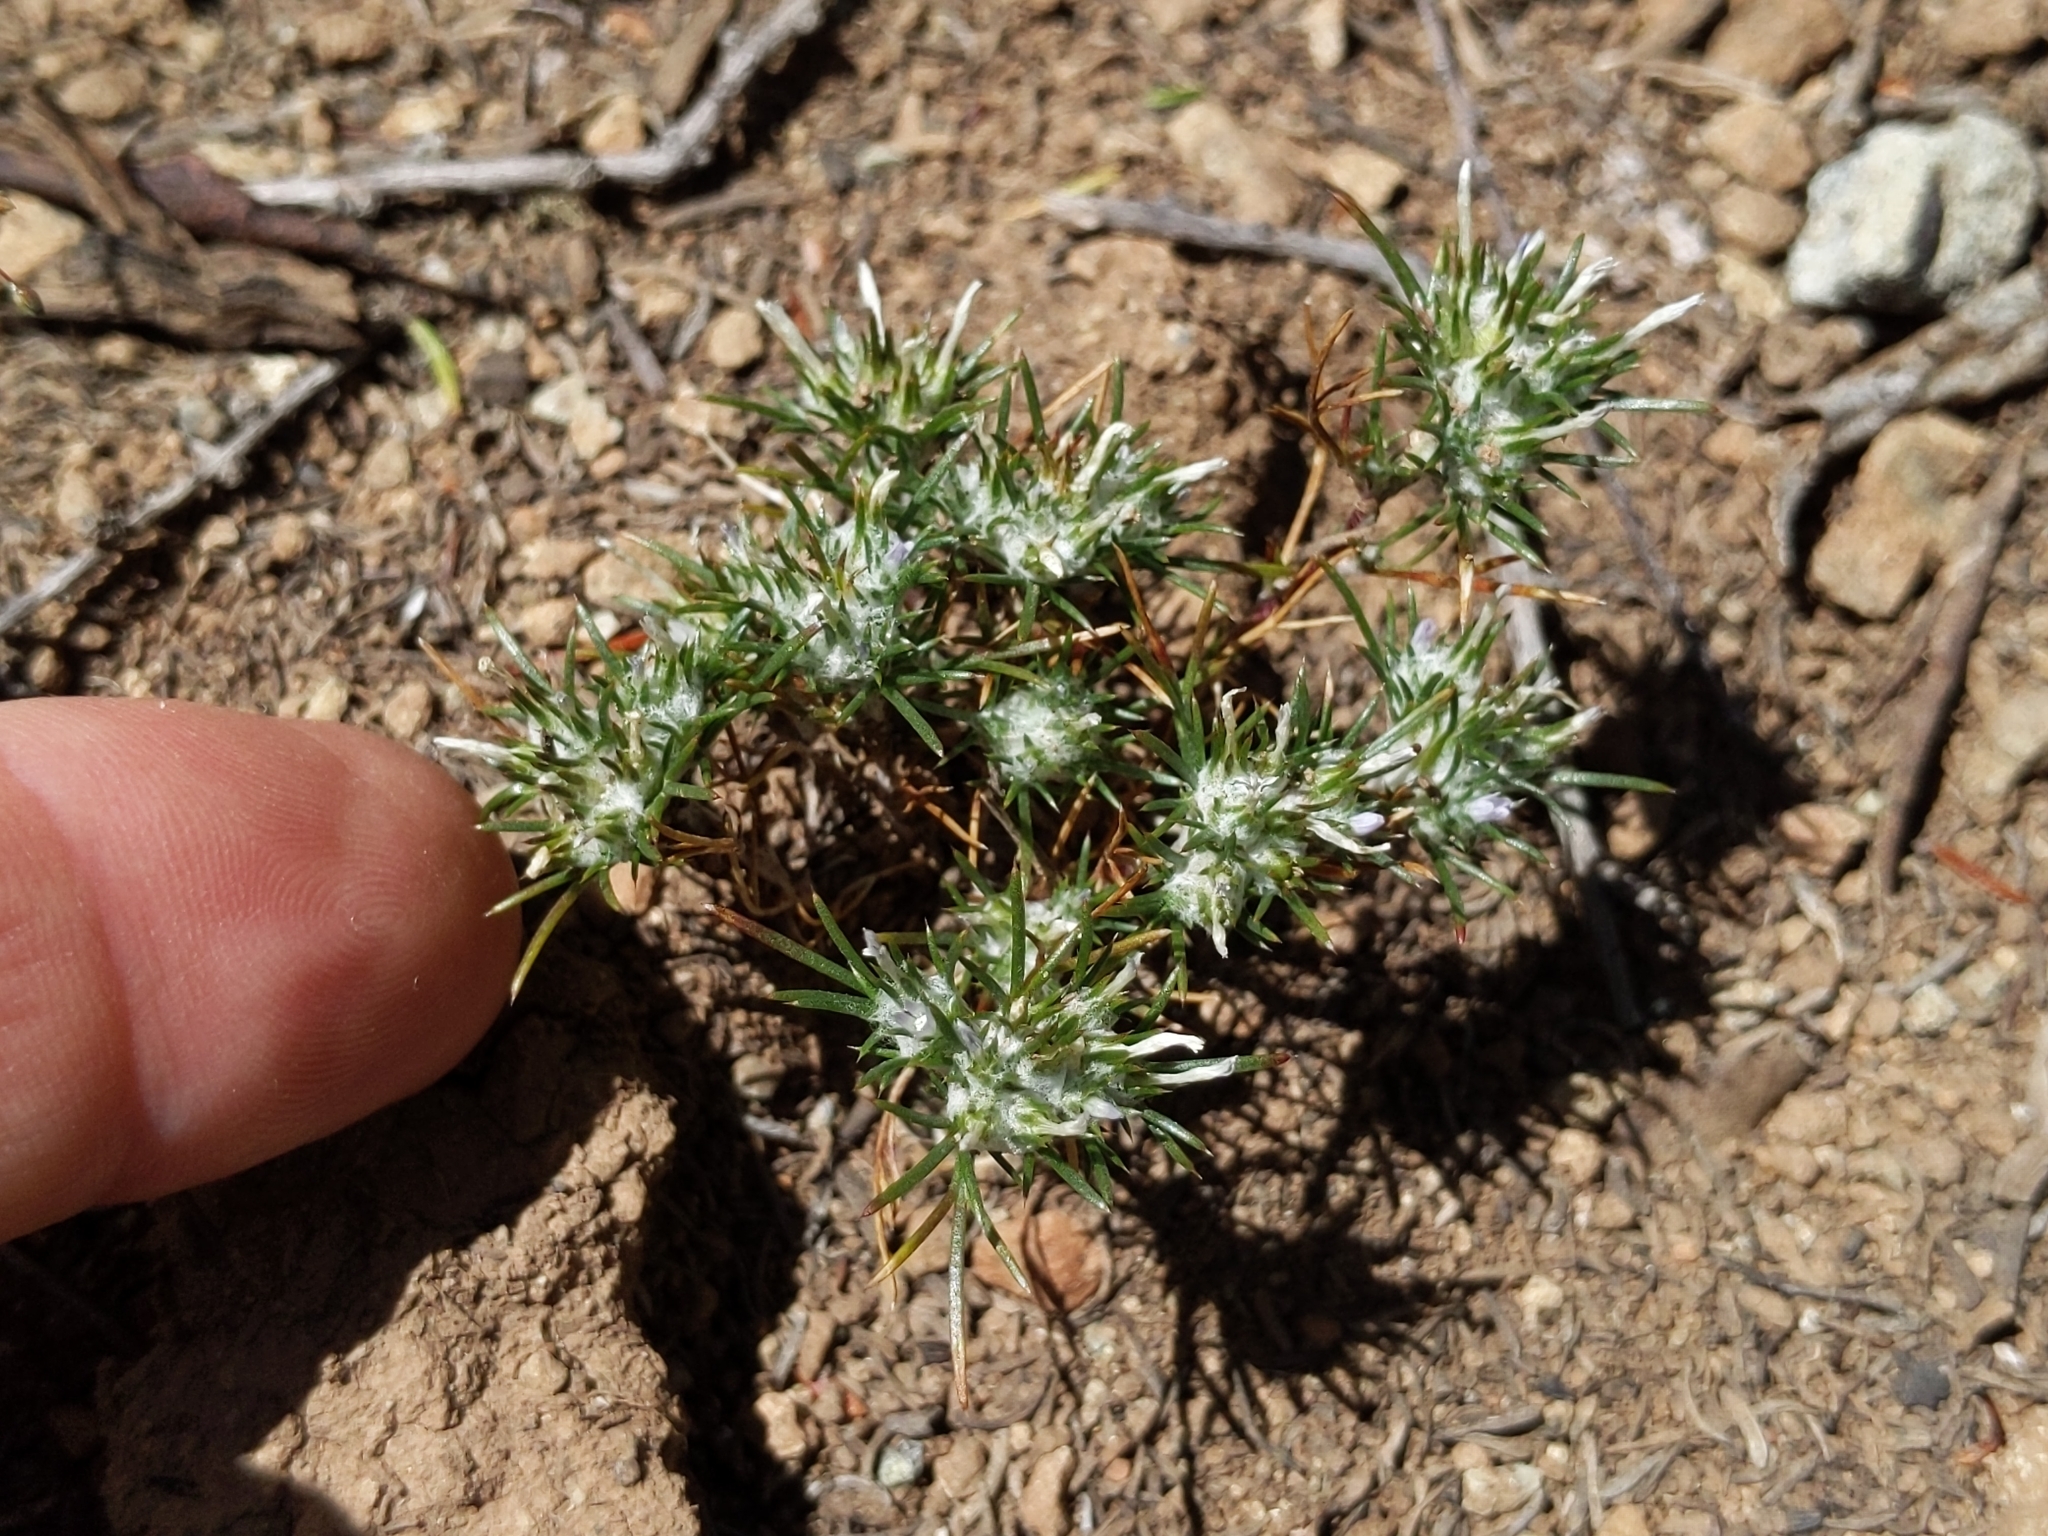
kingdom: Plantae
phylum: Tracheophyta
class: Magnoliopsida
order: Ericales
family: Polemoniaceae
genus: Eriastrum
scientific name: Eriastrum abramsii
